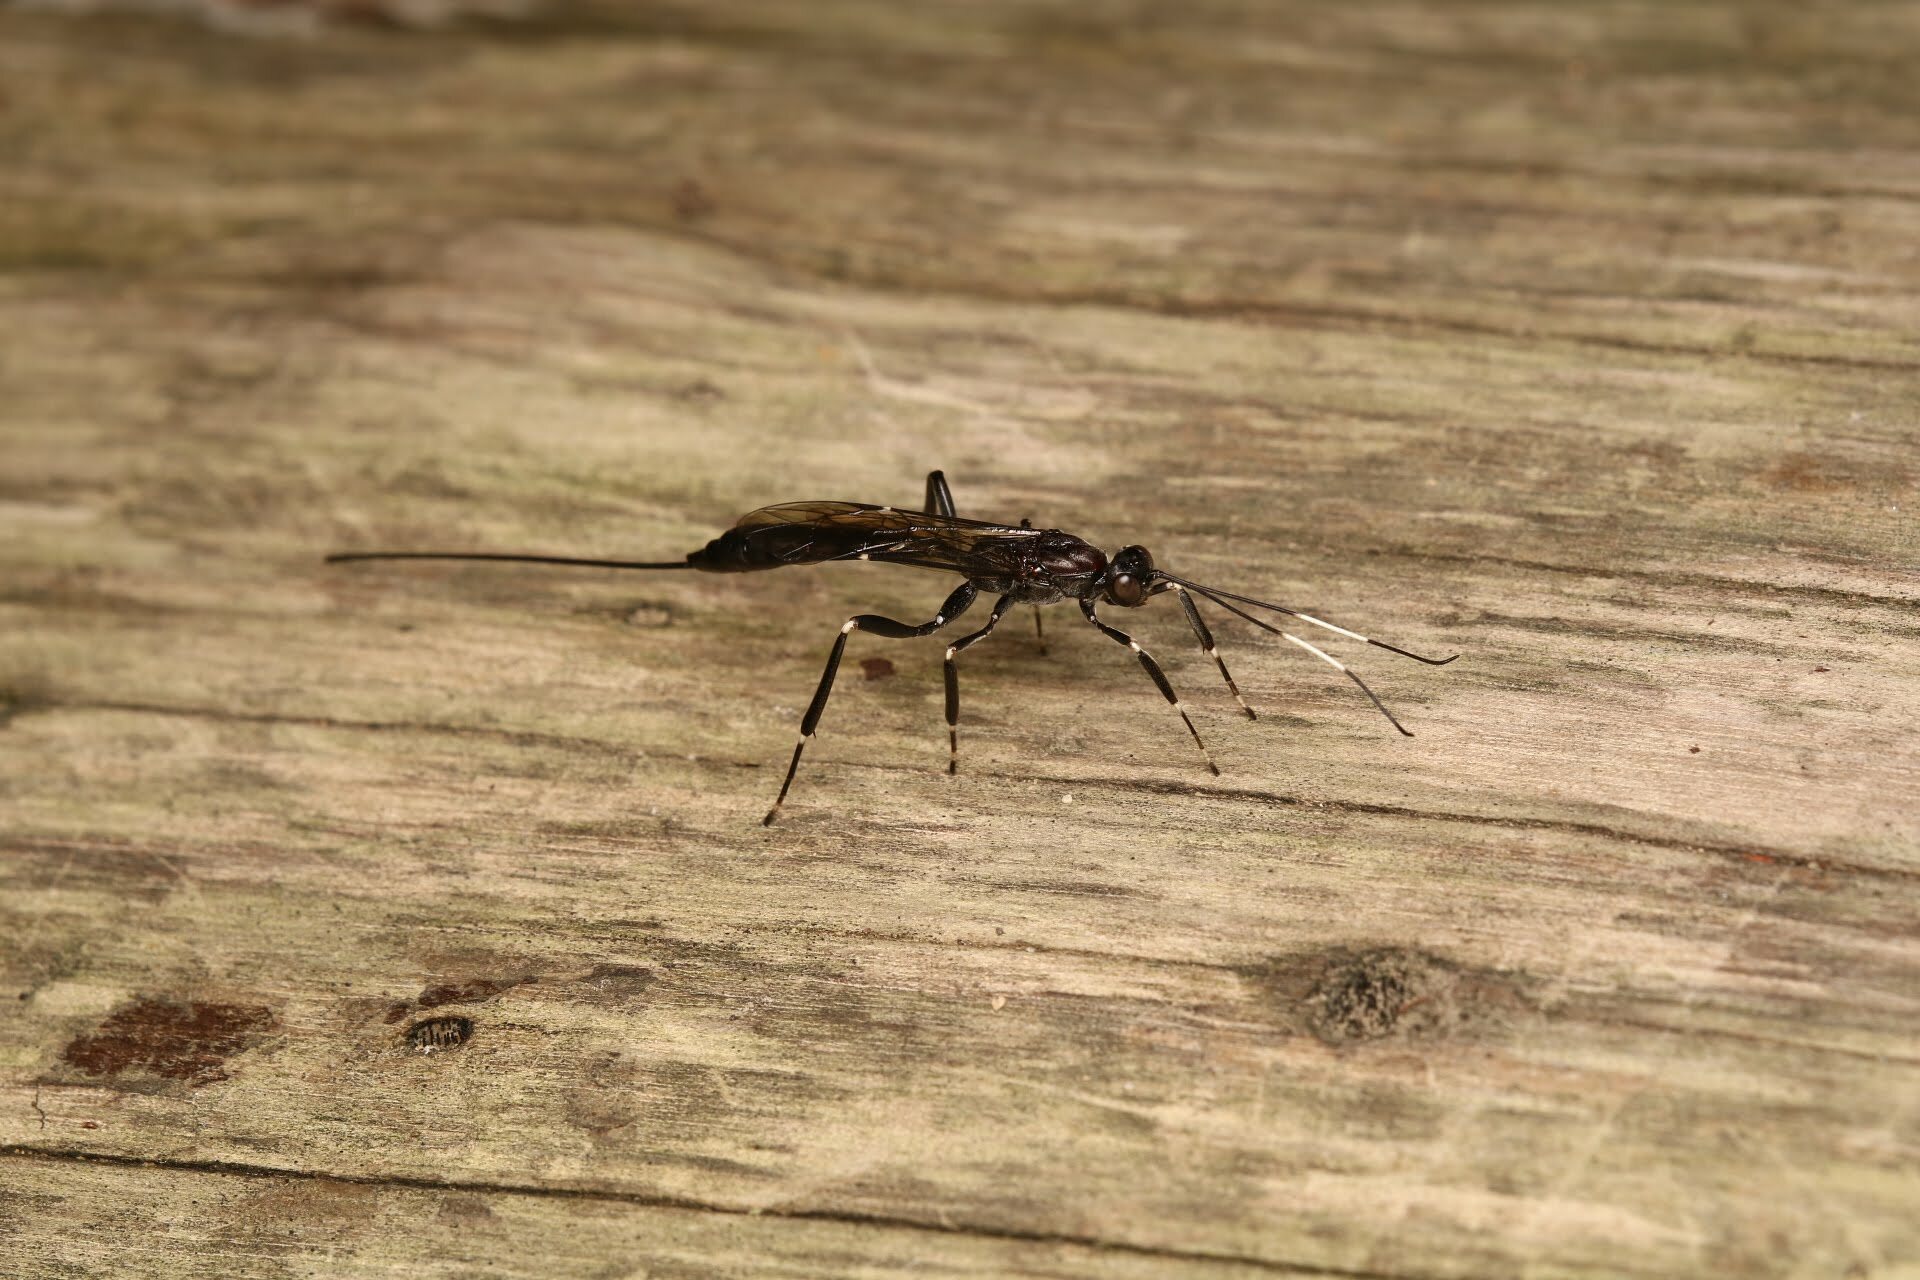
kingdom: Animalia
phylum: Arthropoda
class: Insecta
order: Hymenoptera
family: Ichneumonidae
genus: Xorides
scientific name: Xorides stigmapterus
